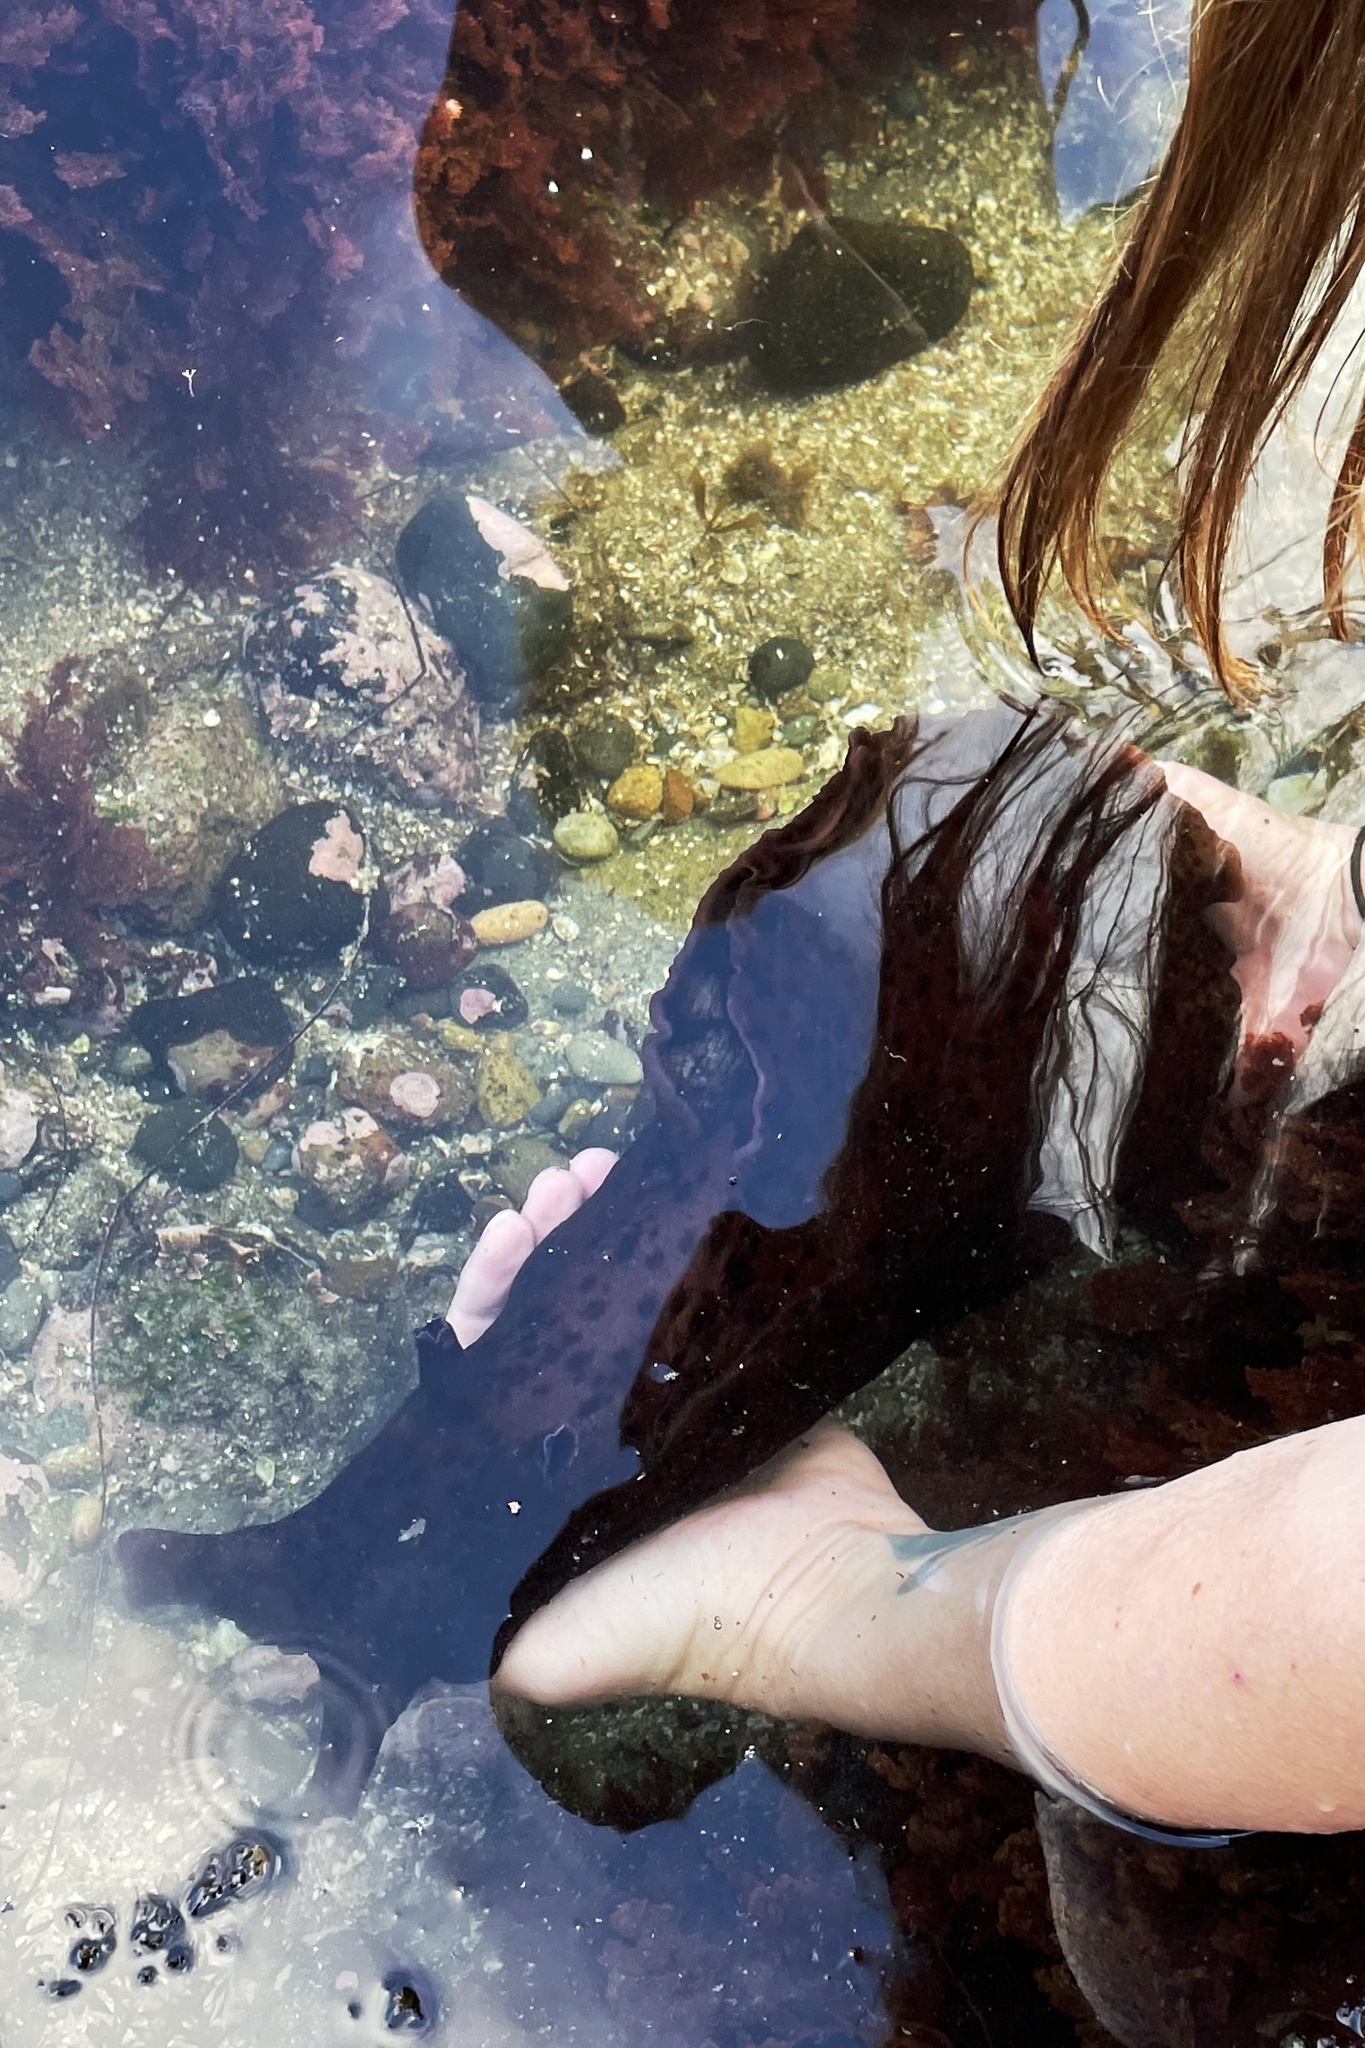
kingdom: Animalia
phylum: Mollusca
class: Gastropoda
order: Aplysiida
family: Aplysiidae
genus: Aplysia
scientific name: Aplysia californica
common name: California seahare
